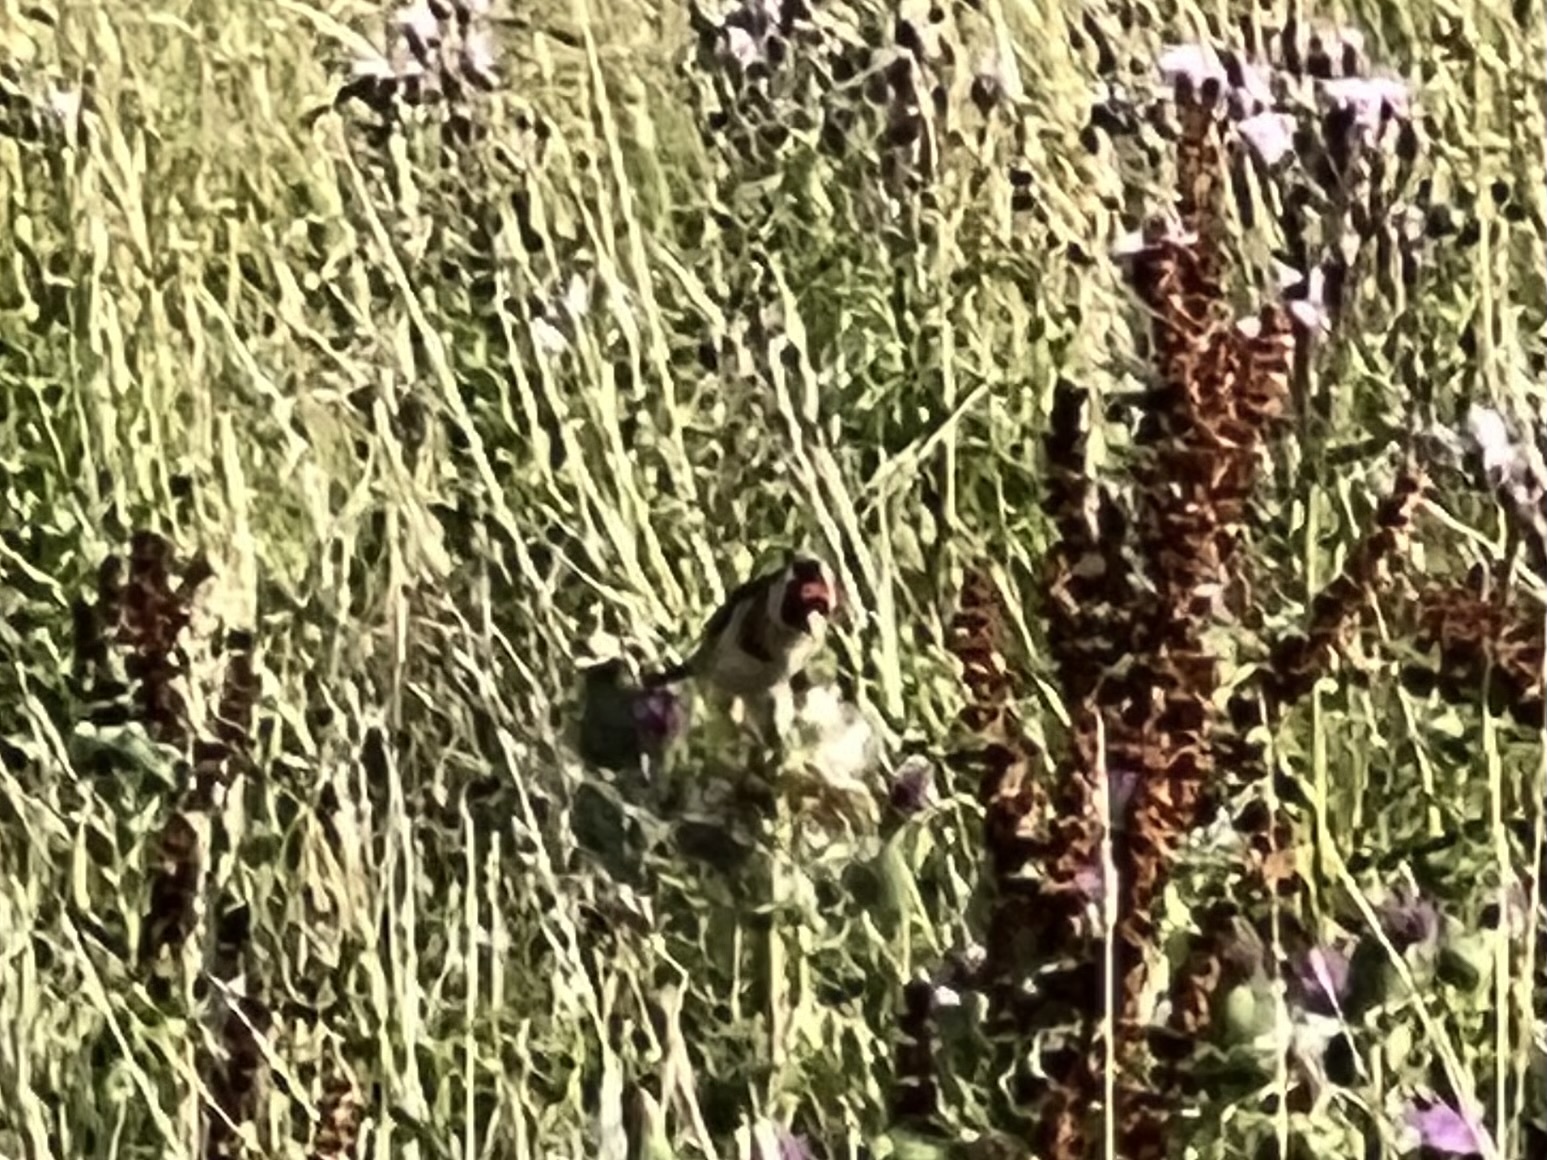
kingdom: Animalia
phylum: Chordata
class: Aves
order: Passeriformes
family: Fringillidae
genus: Carduelis
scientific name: Carduelis carduelis
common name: European goldfinch
